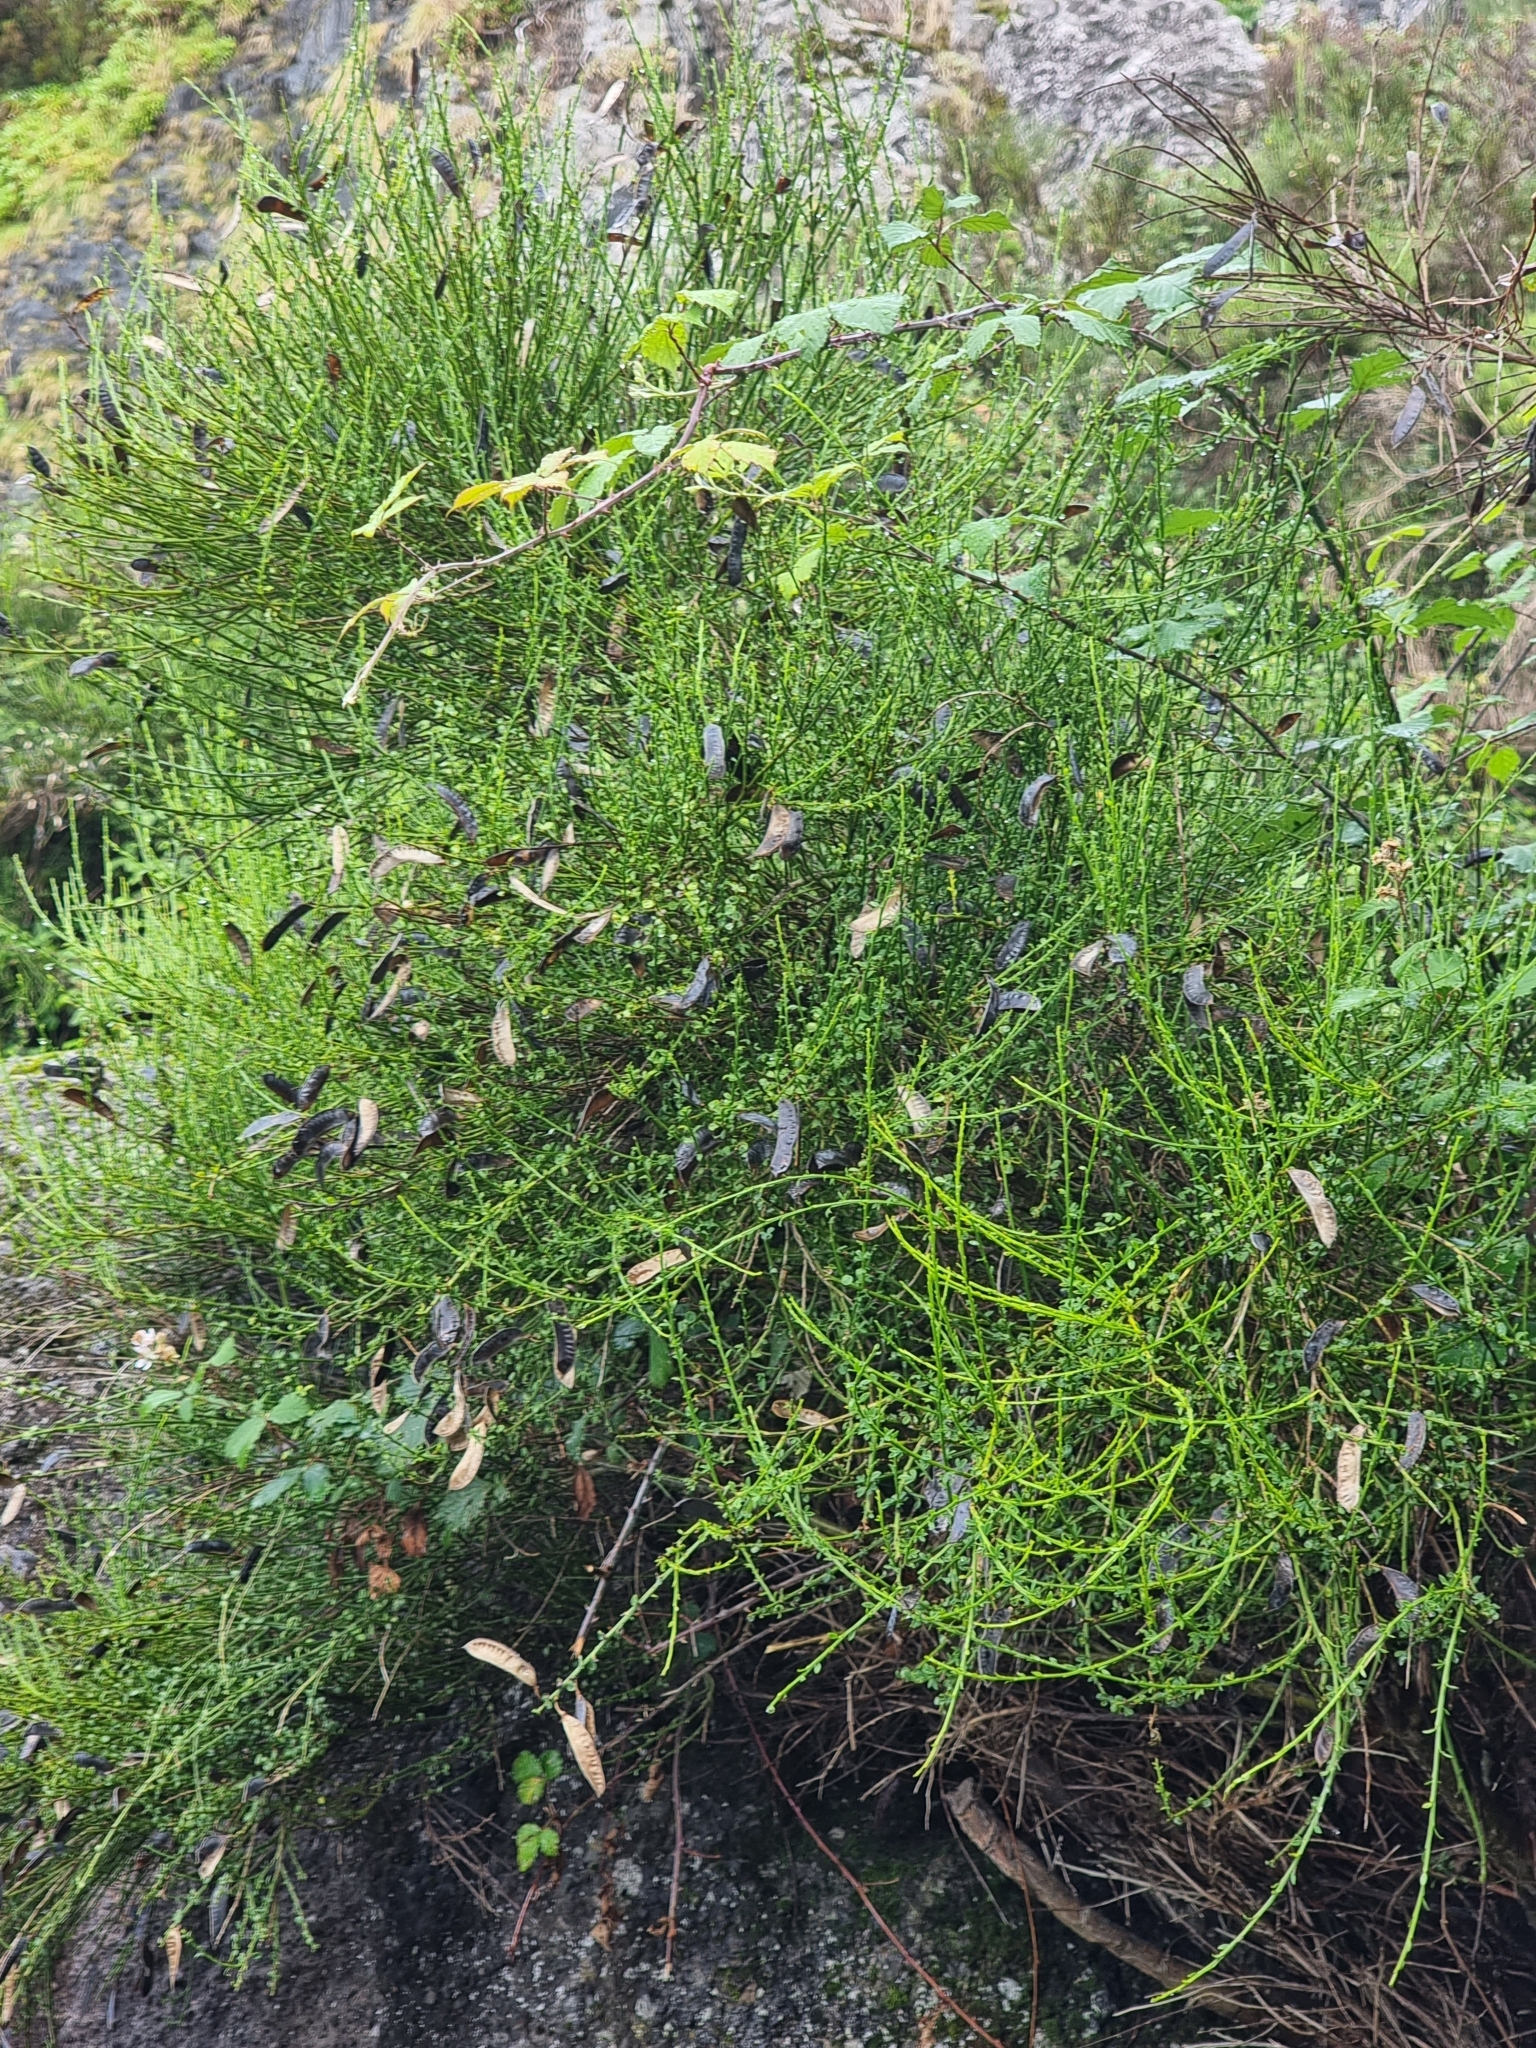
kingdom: Plantae
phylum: Tracheophyta
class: Magnoliopsida
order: Fabales
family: Fabaceae
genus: Cytisus
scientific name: Cytisus scoparius
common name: Scotch broom
